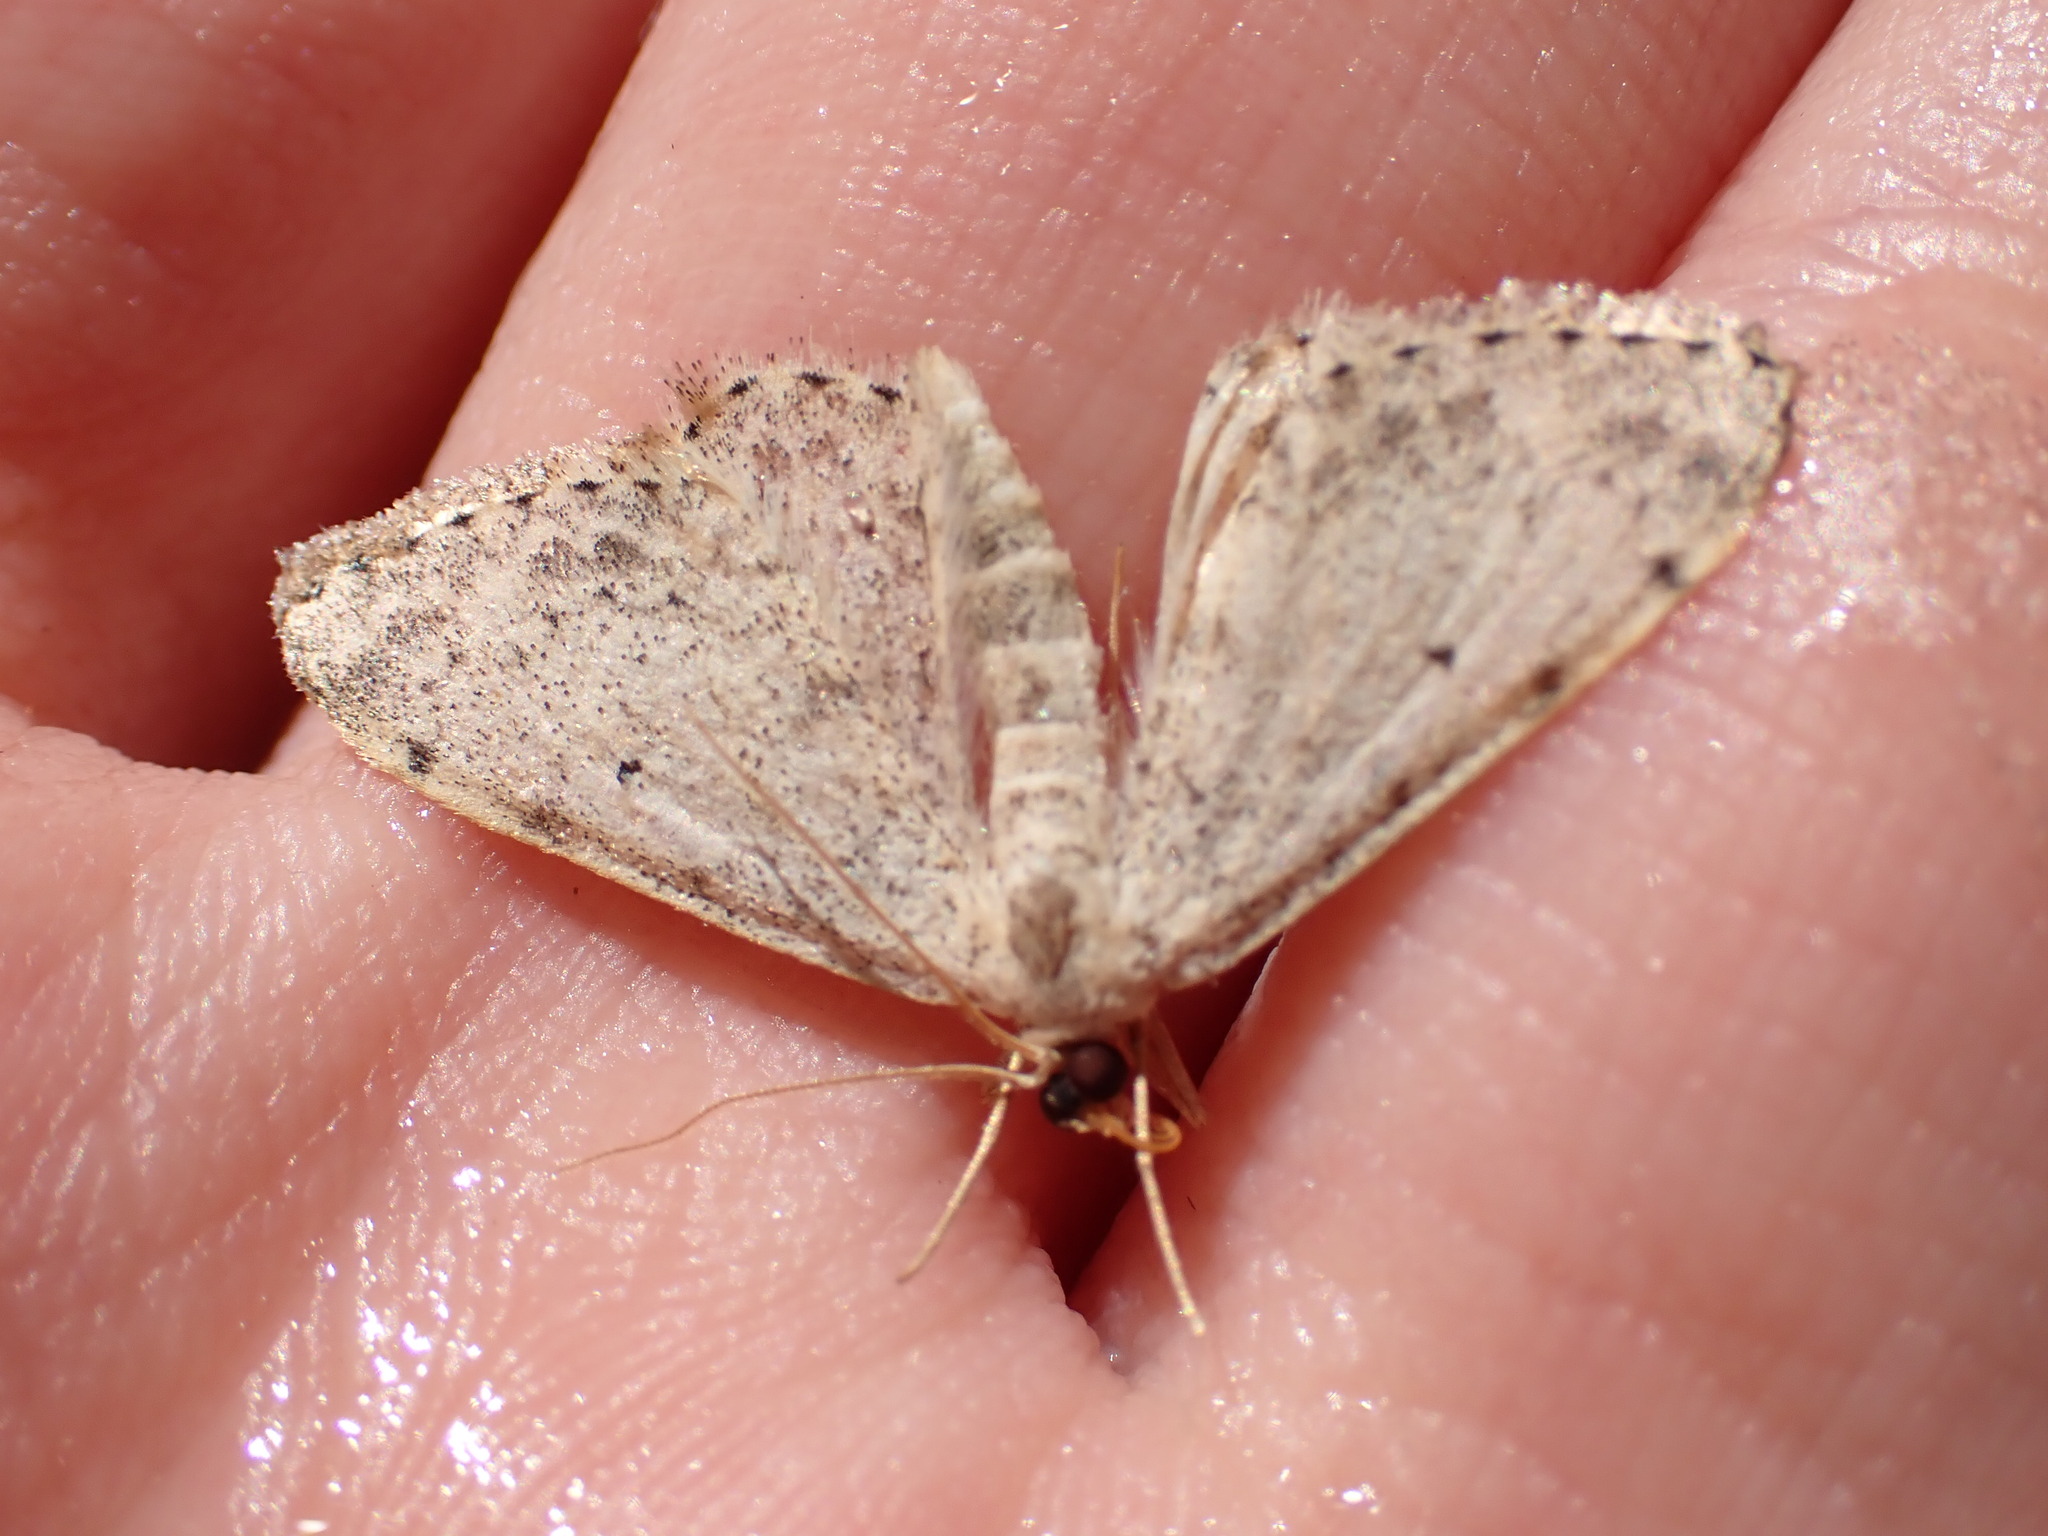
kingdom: Animalia
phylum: Arthropoda
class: Insecta
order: Lepidoptera
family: Geometridae
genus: Scopula
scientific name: Scopula marginepunctata
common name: Mullein wave
